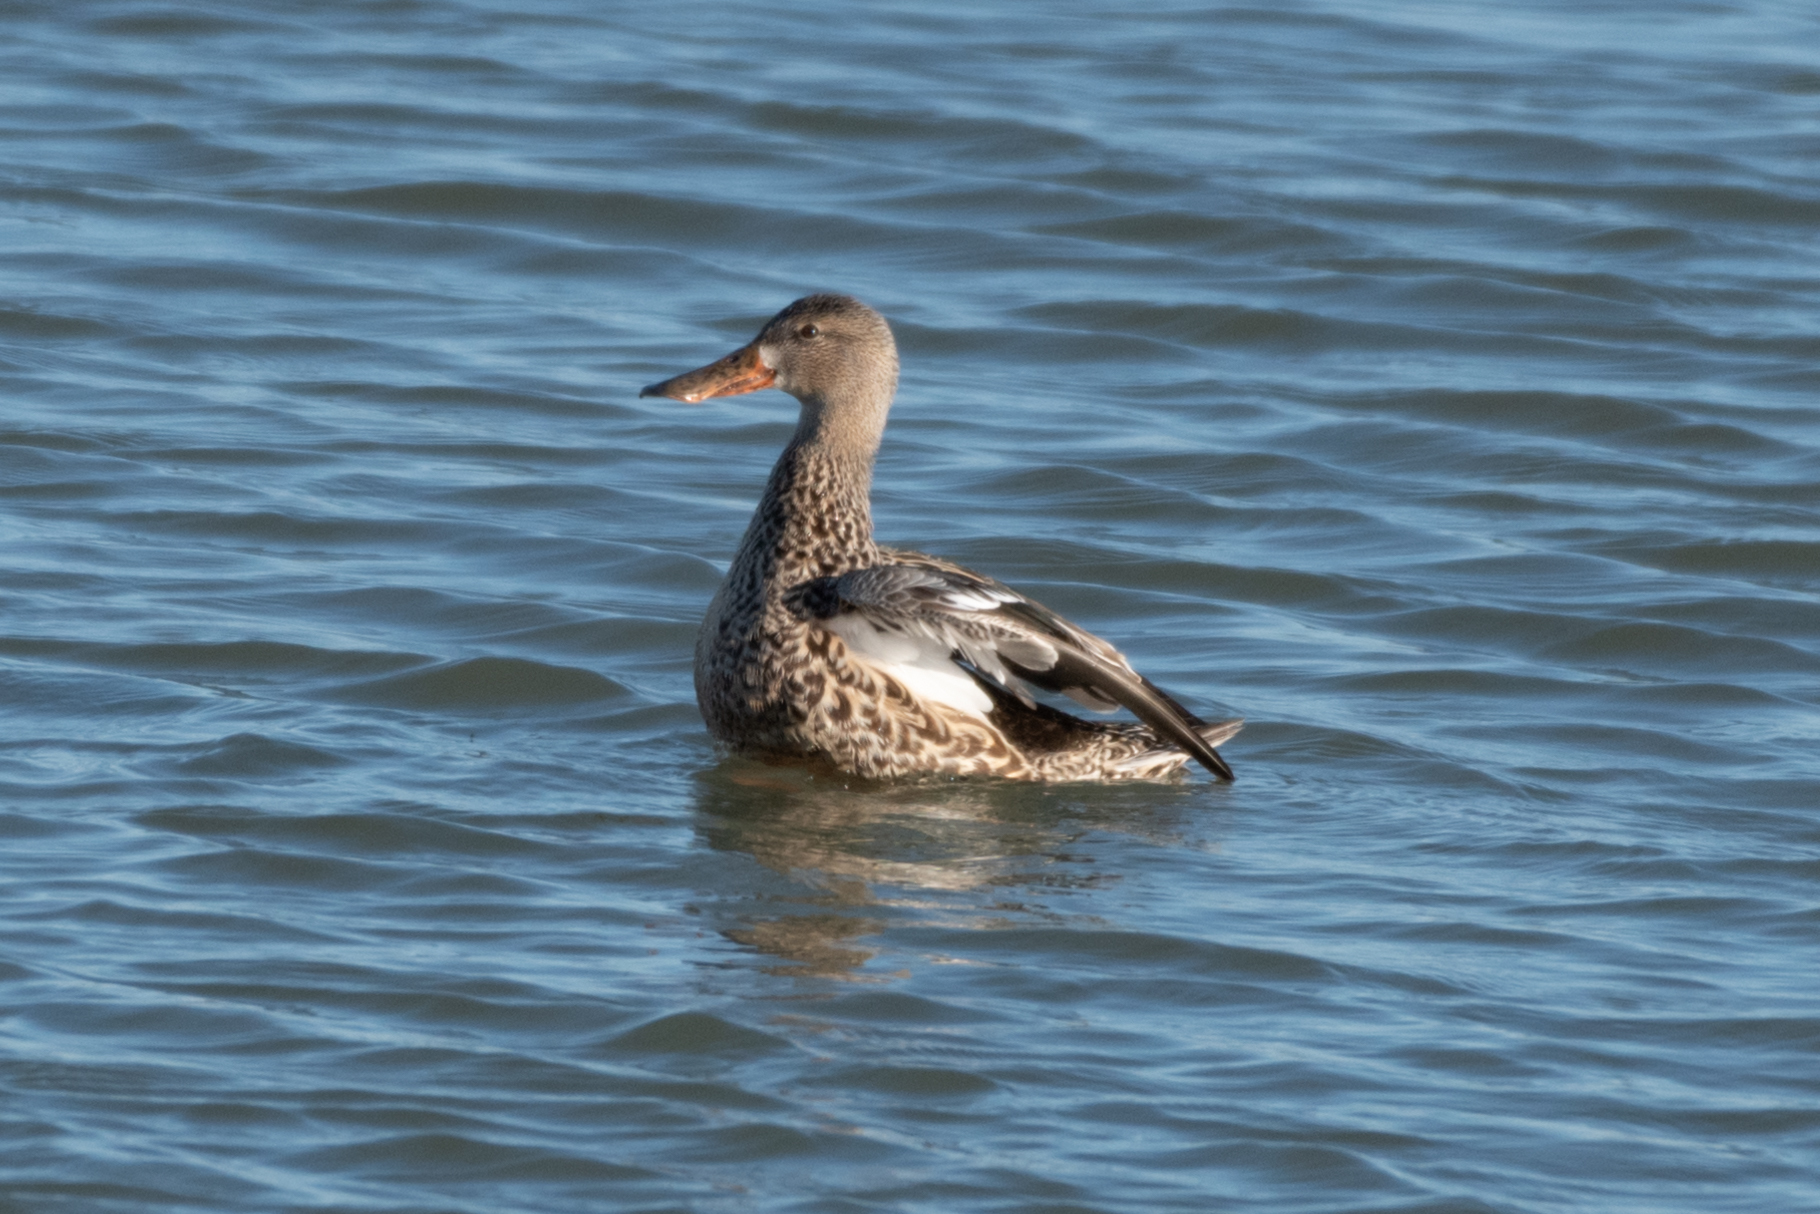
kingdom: Animalia
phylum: Chordata
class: Aves
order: Anseriformes
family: Anatidae
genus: Spatula
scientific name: Spatula clypeata
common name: Northern shoveler
